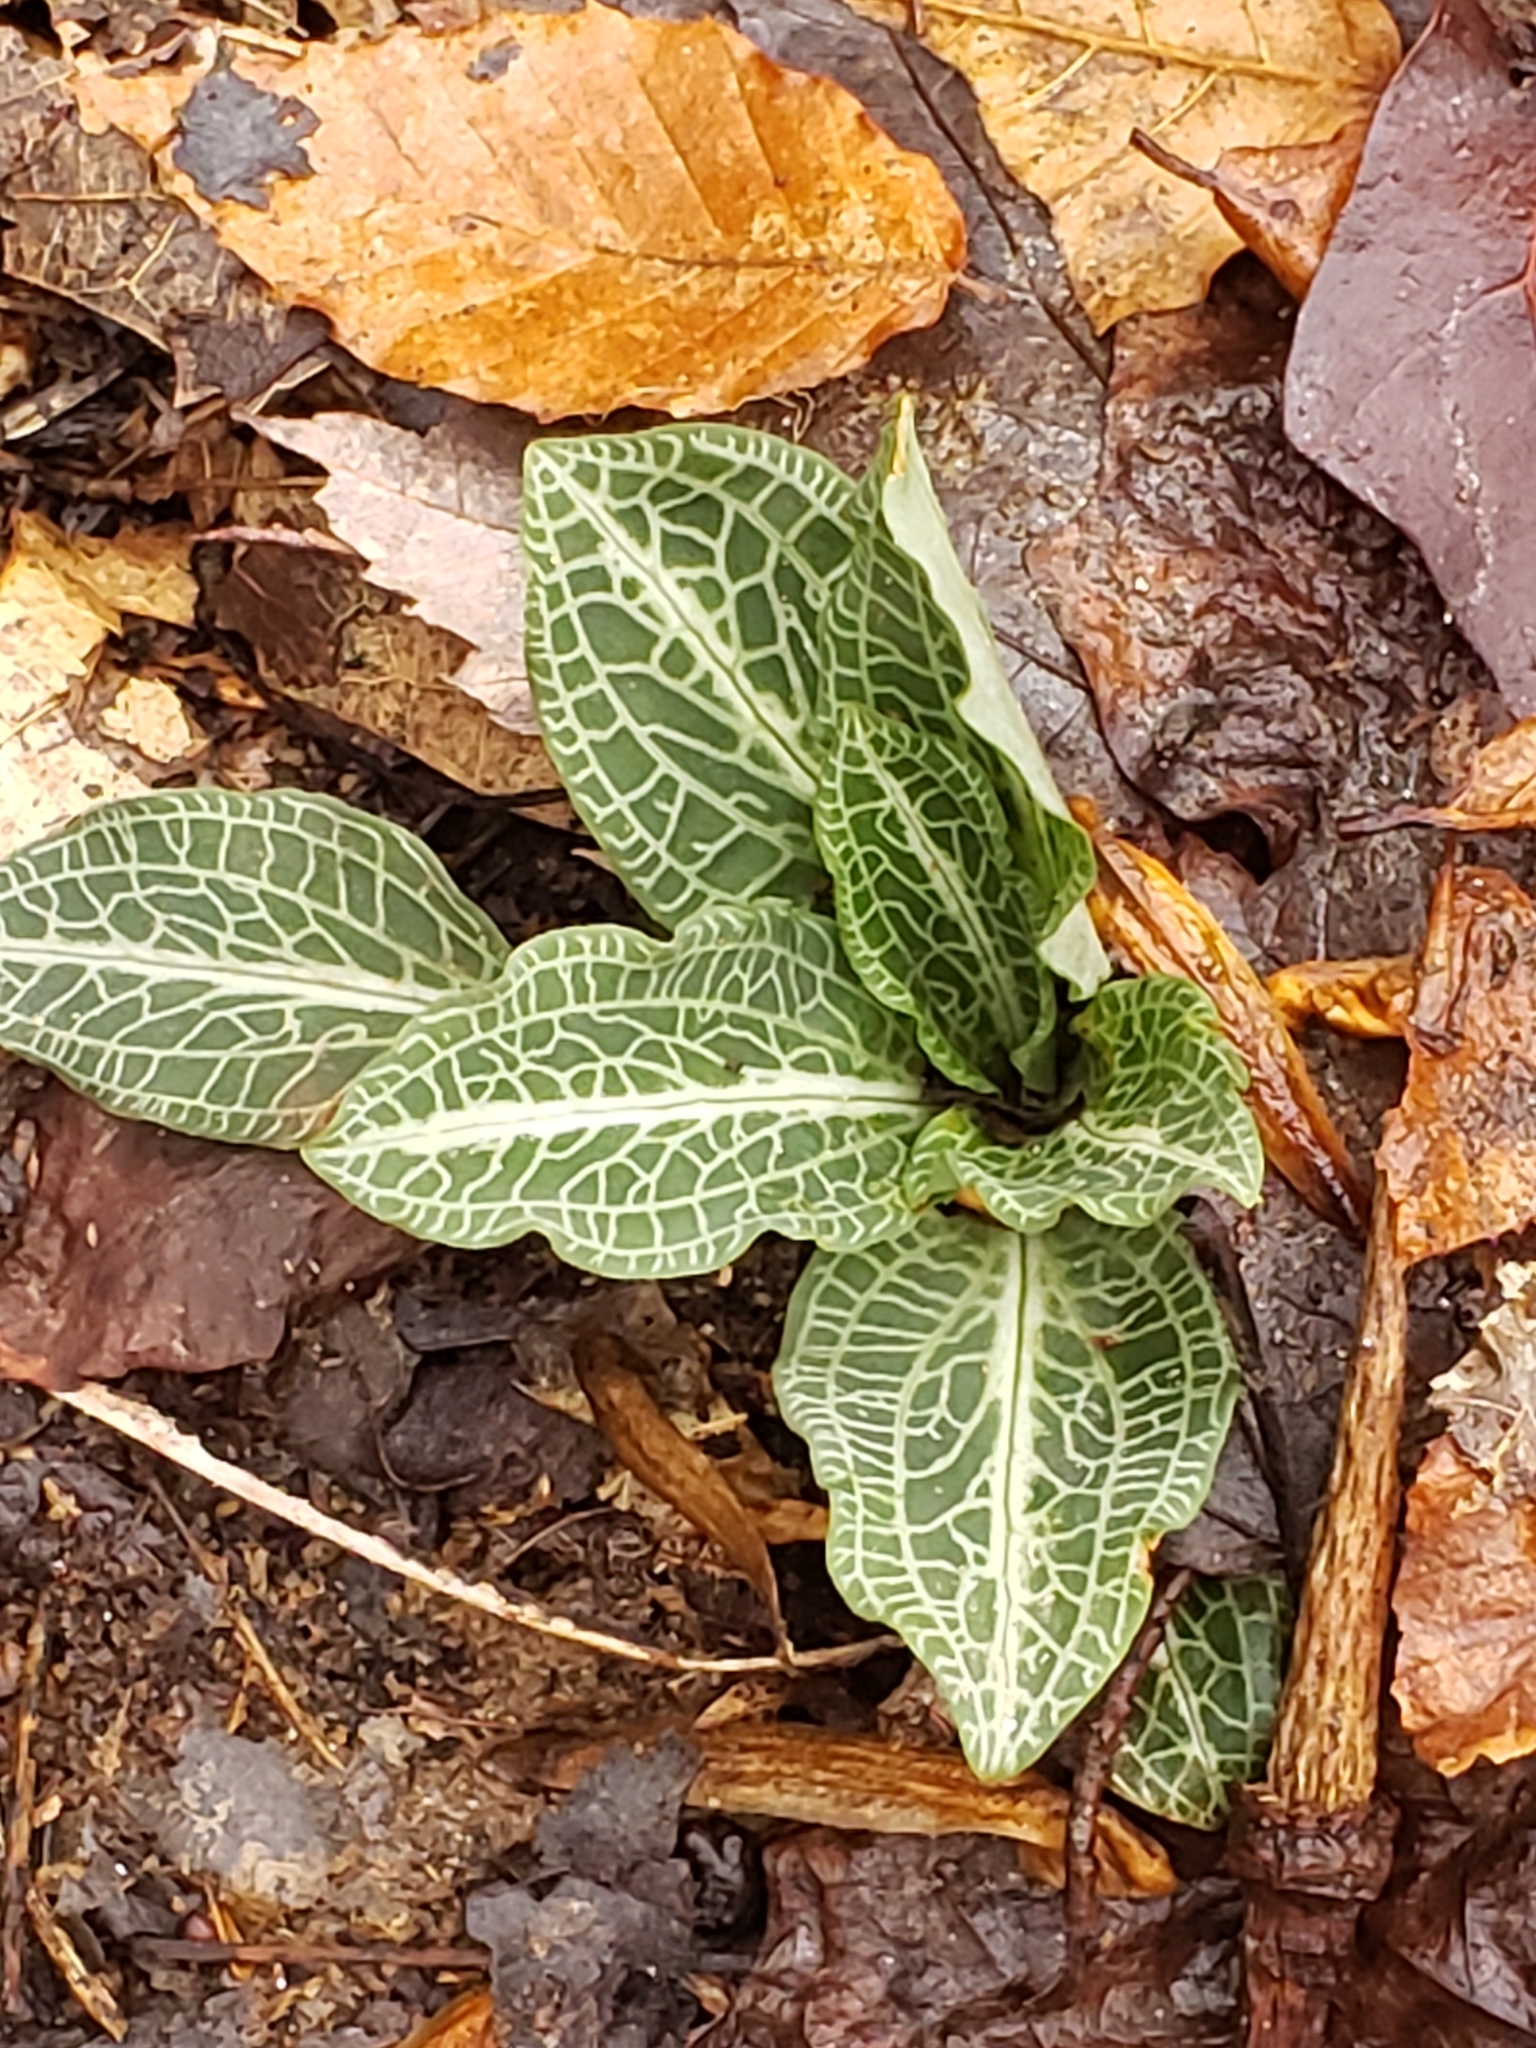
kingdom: Plantae
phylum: Tracheophyta
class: Liliopsida
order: Asparagales
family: Orchidaceae
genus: Goodyera
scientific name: Goodyera pubescens
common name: Downy rattlesnake-plantain
